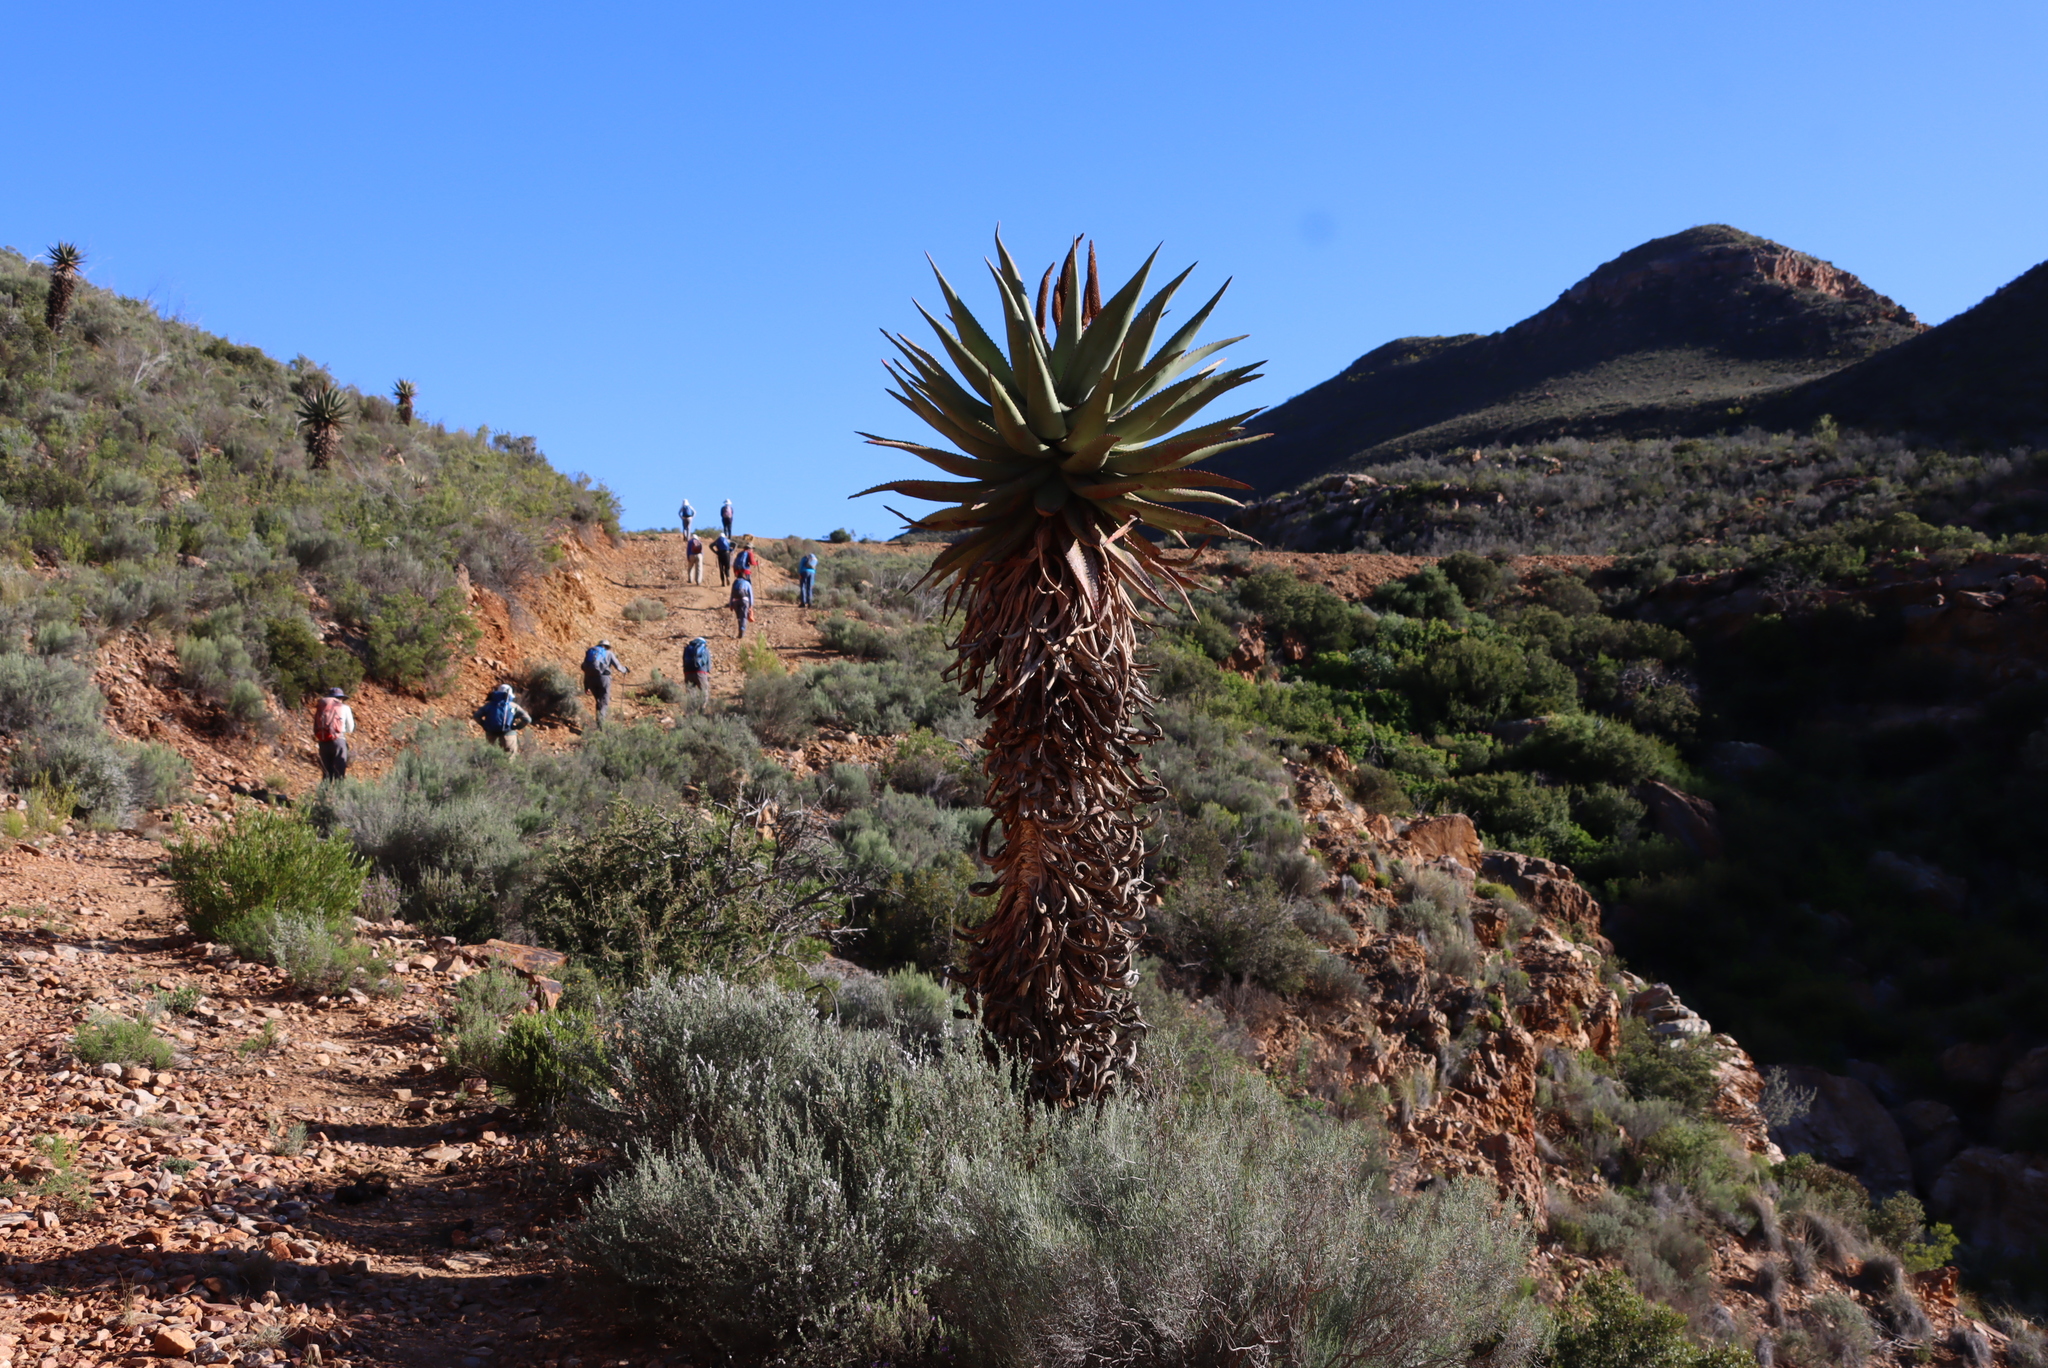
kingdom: Plantae
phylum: Tracheophyta
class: Liliopsida
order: Asparagales
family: Asphodelaceae
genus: Aloe
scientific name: Aloe ferox
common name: Bitter aloe
